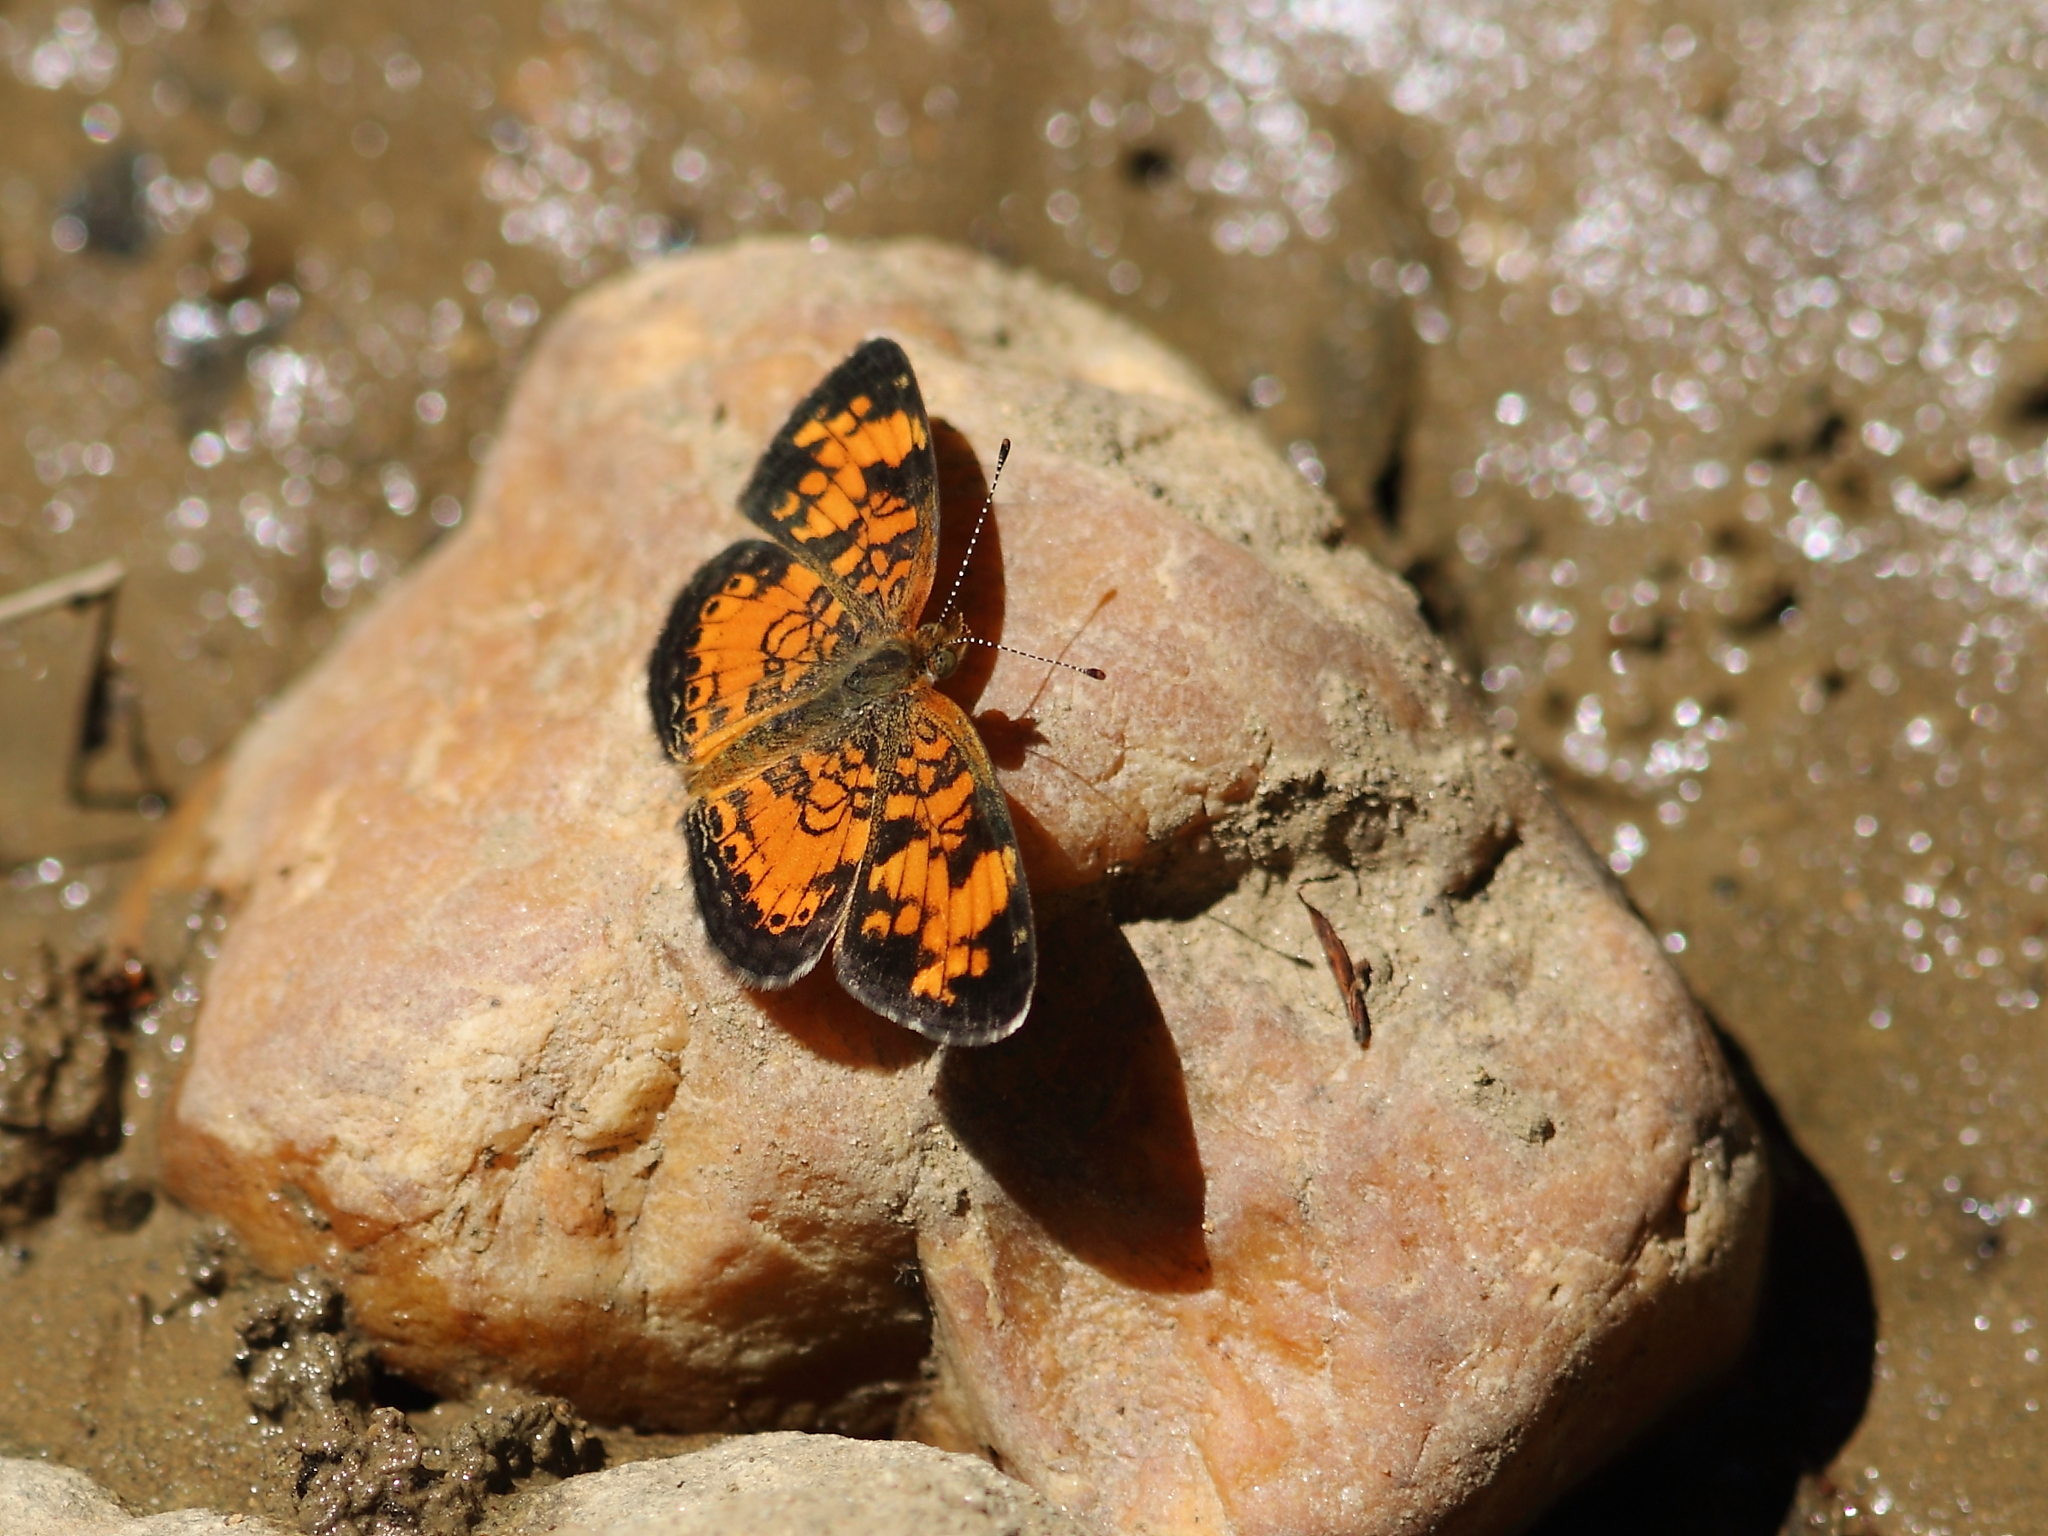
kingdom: Animalia
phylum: Arthropoda
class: Insecta
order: Lepidoptera
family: Nymphalidae
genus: Phyciodes
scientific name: Phyciodes tharos
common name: Pearl crescent
